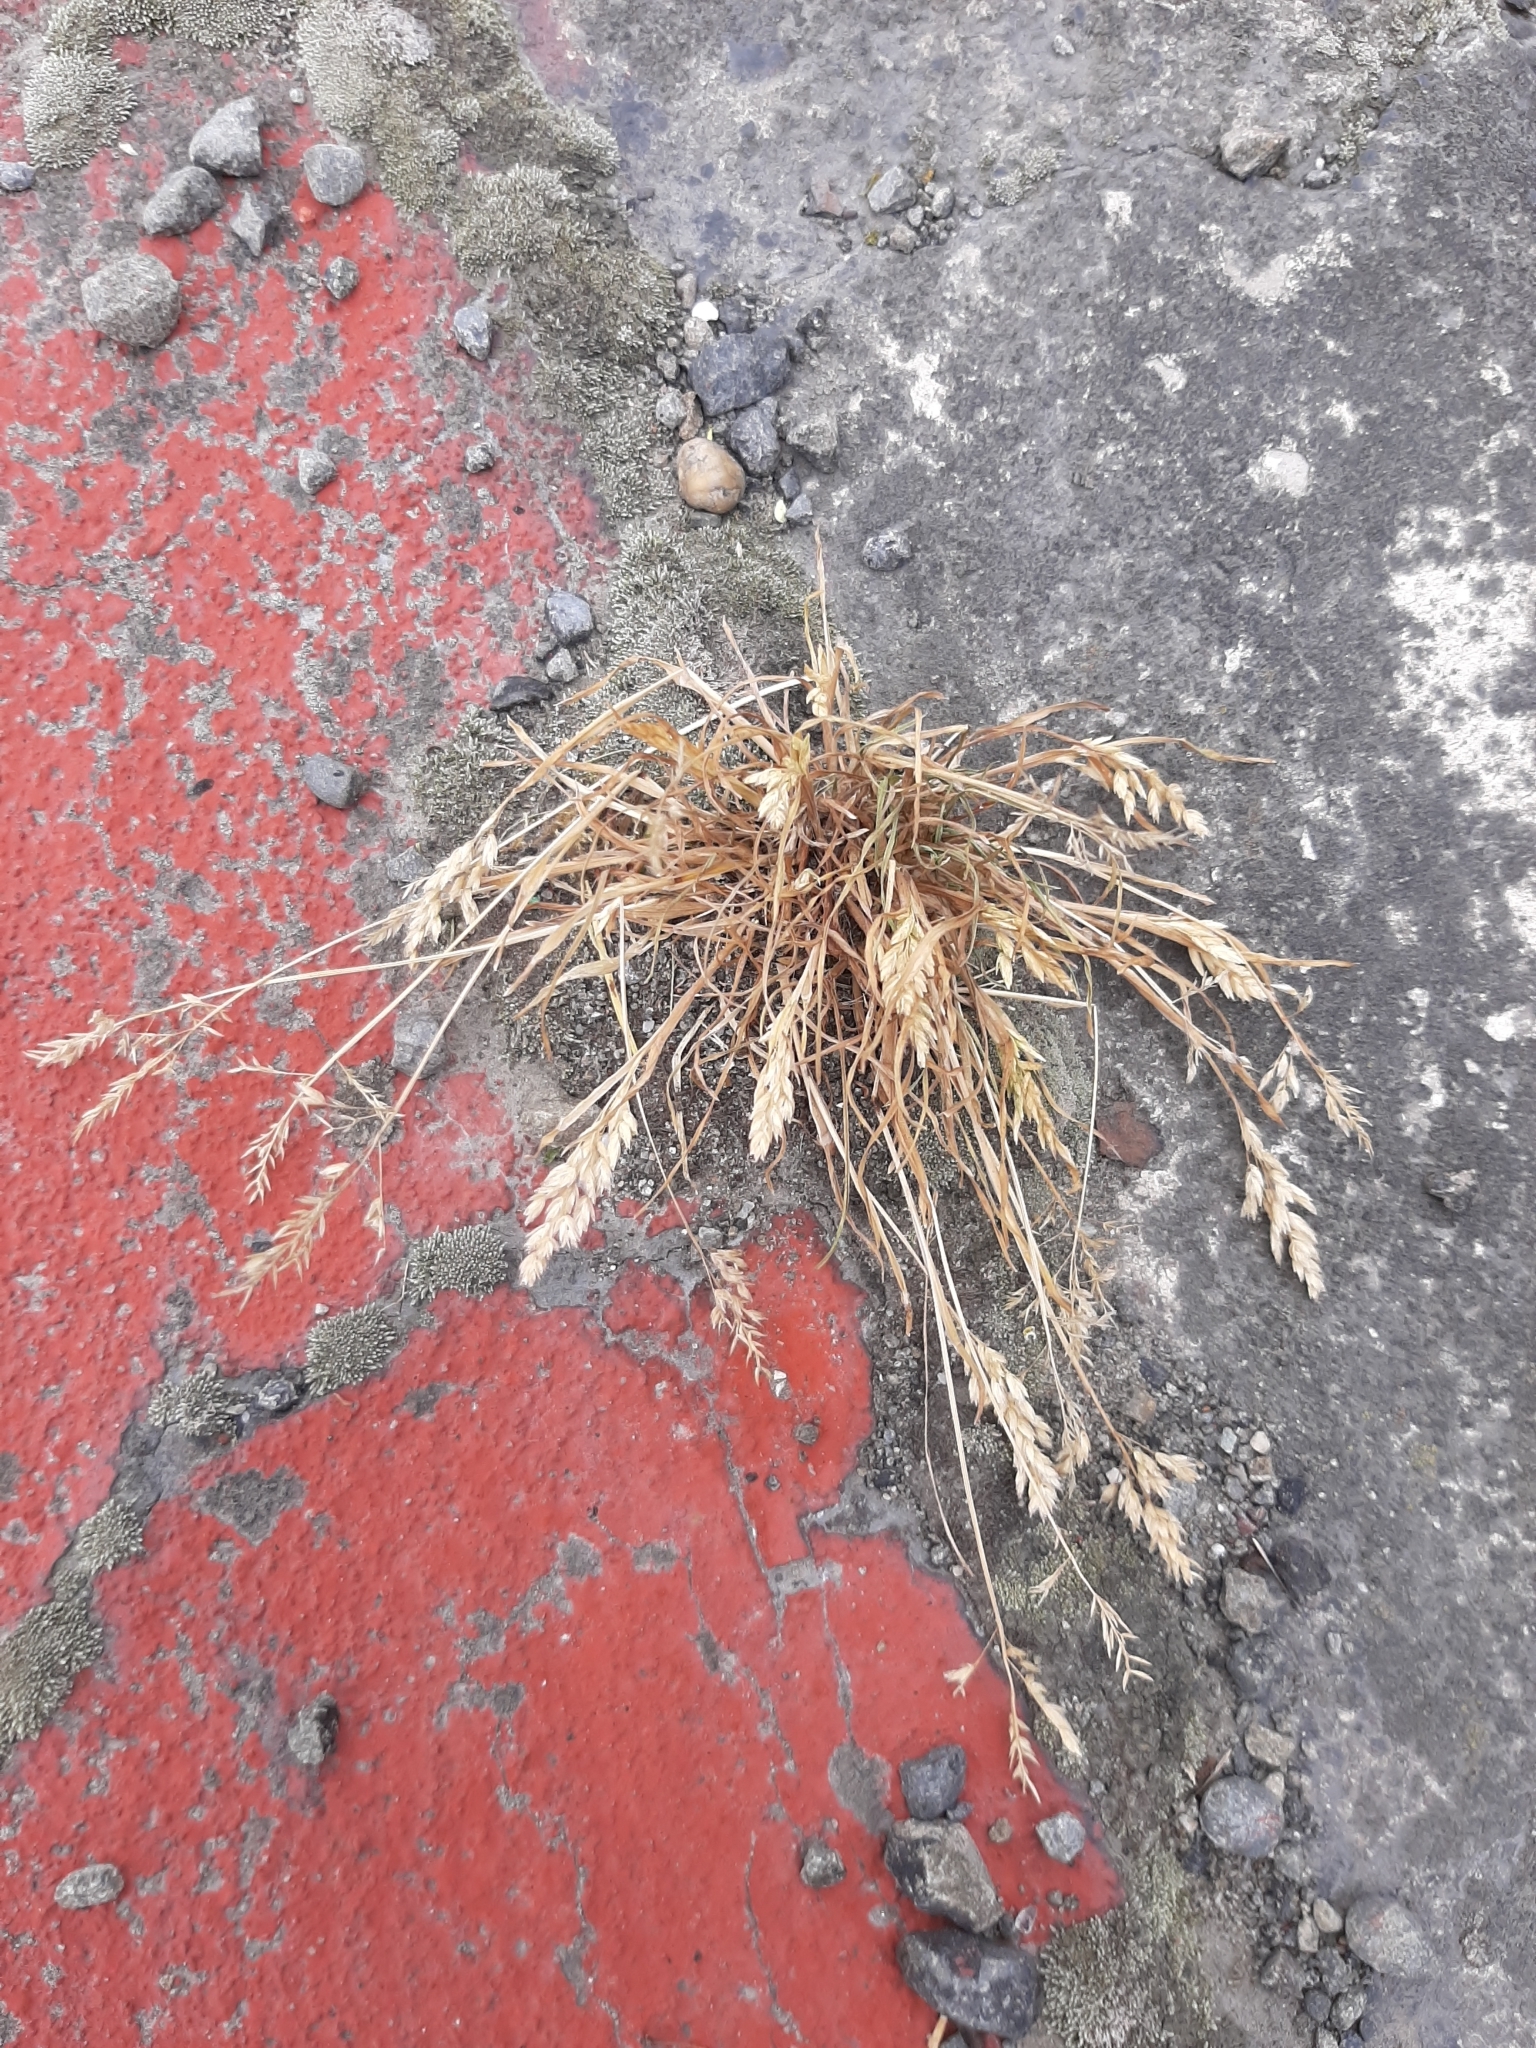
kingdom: Plantae
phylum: Tracheophyta
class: Liliopsida
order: Poales
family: Poaceae
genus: Poa
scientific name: Poa annua
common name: Annual bluegrass
